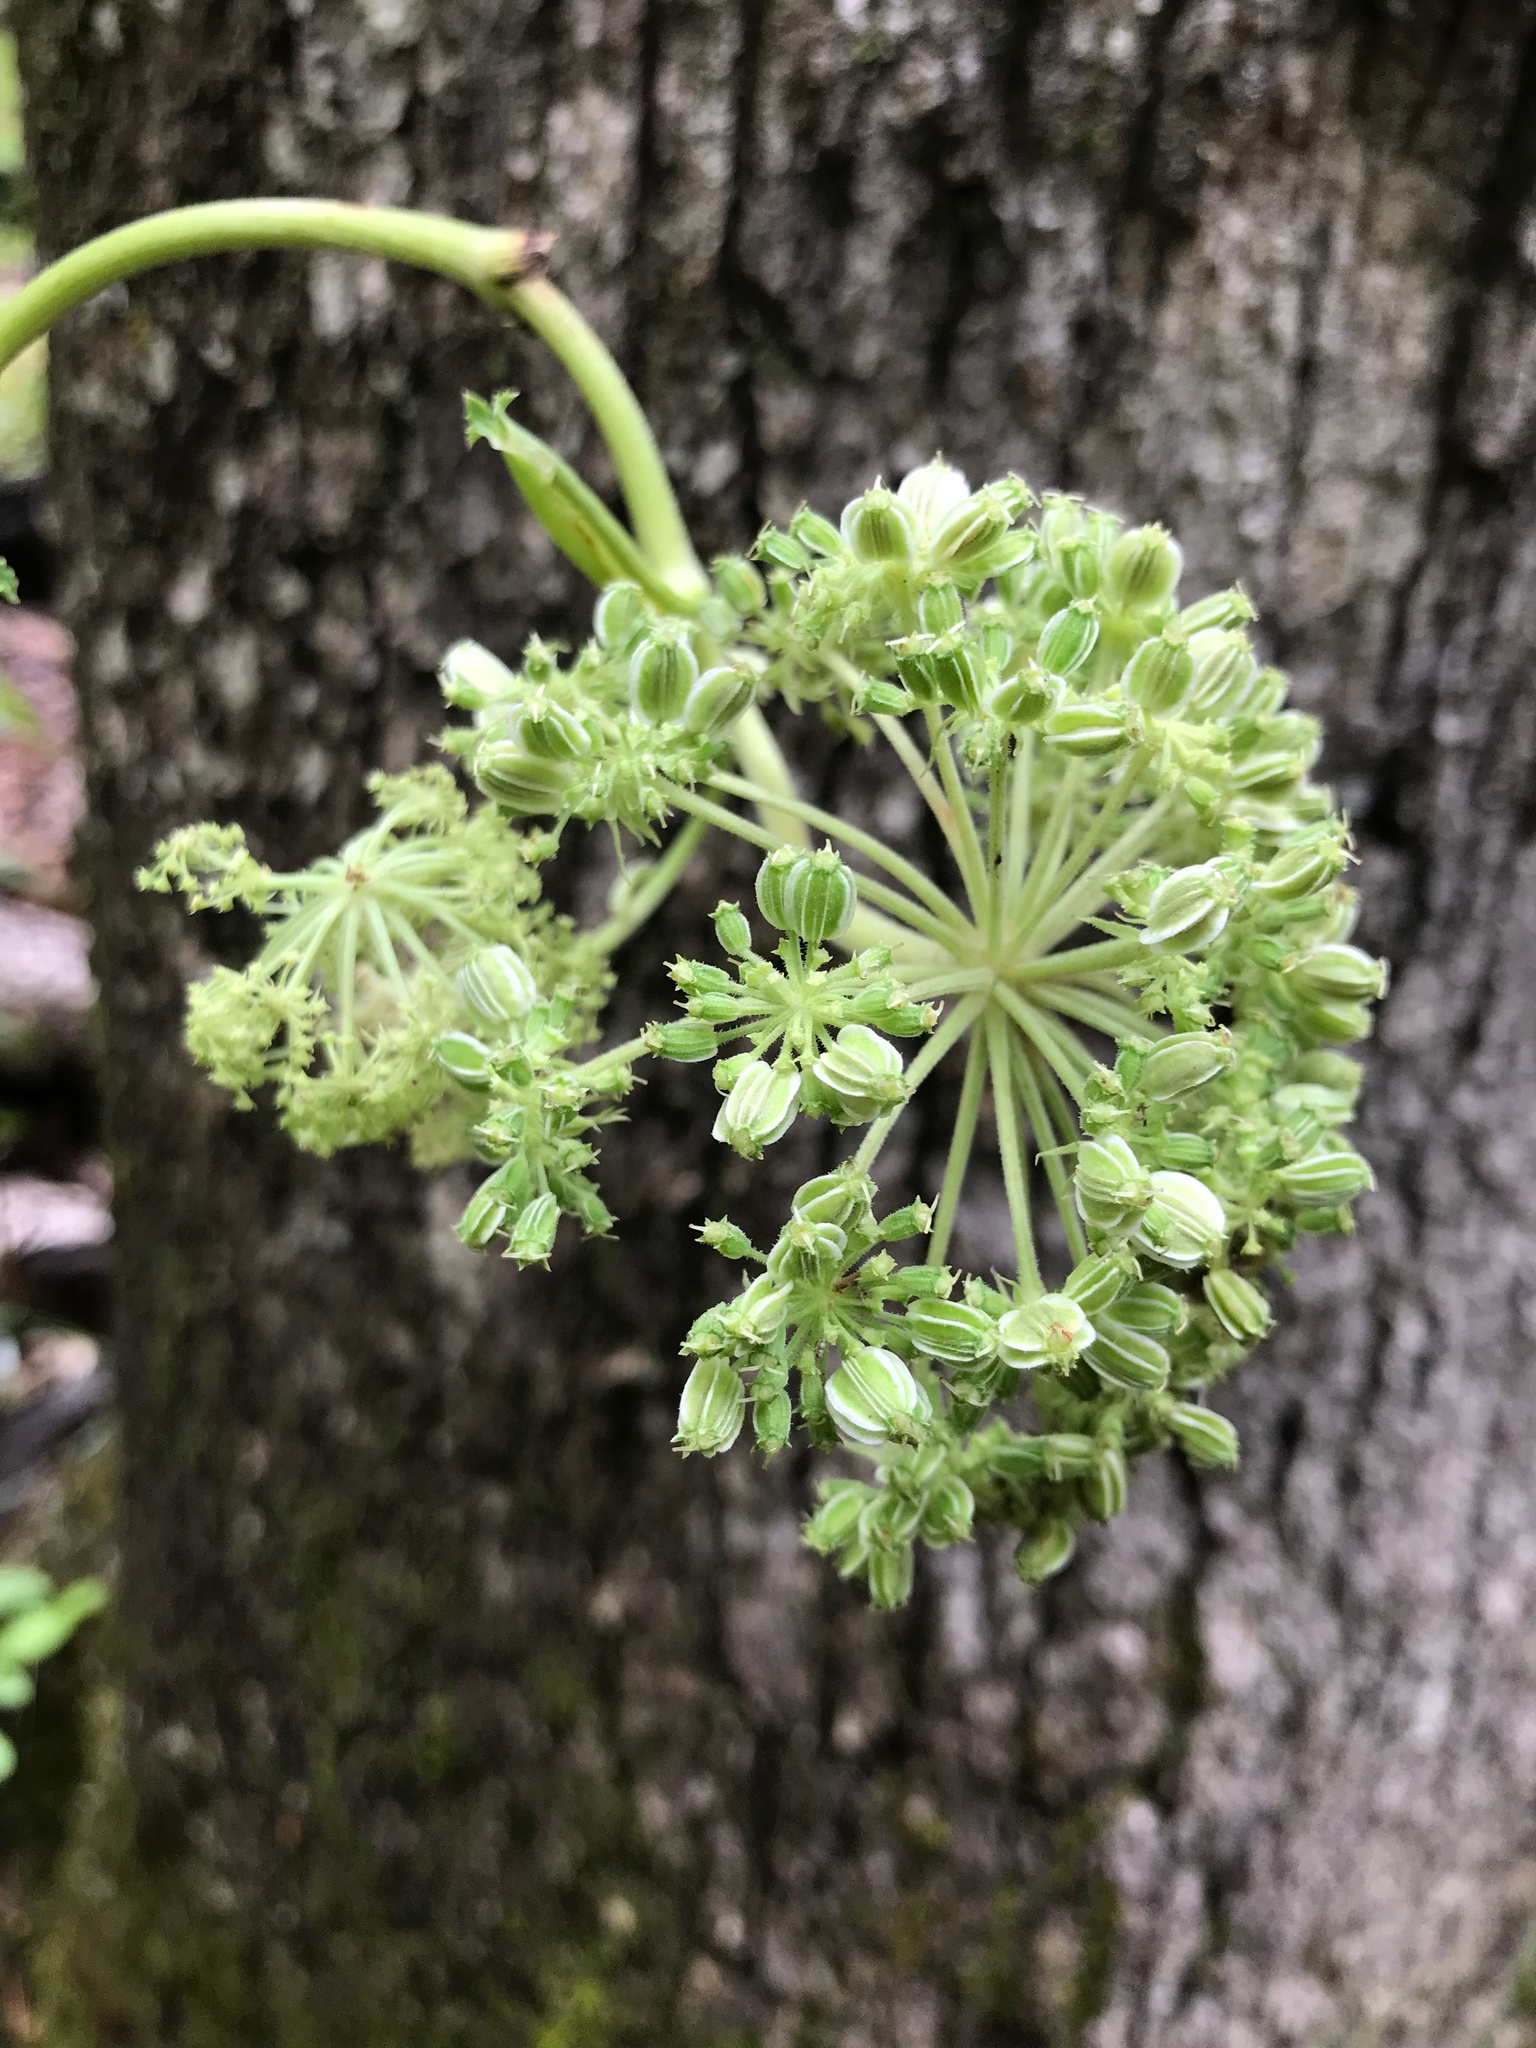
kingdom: Plantae
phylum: Tracheophyta
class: Magnoliopsida
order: Apiales
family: Apiaceae
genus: Angelica
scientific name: Angelica venenosa
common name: Hairy angelica
